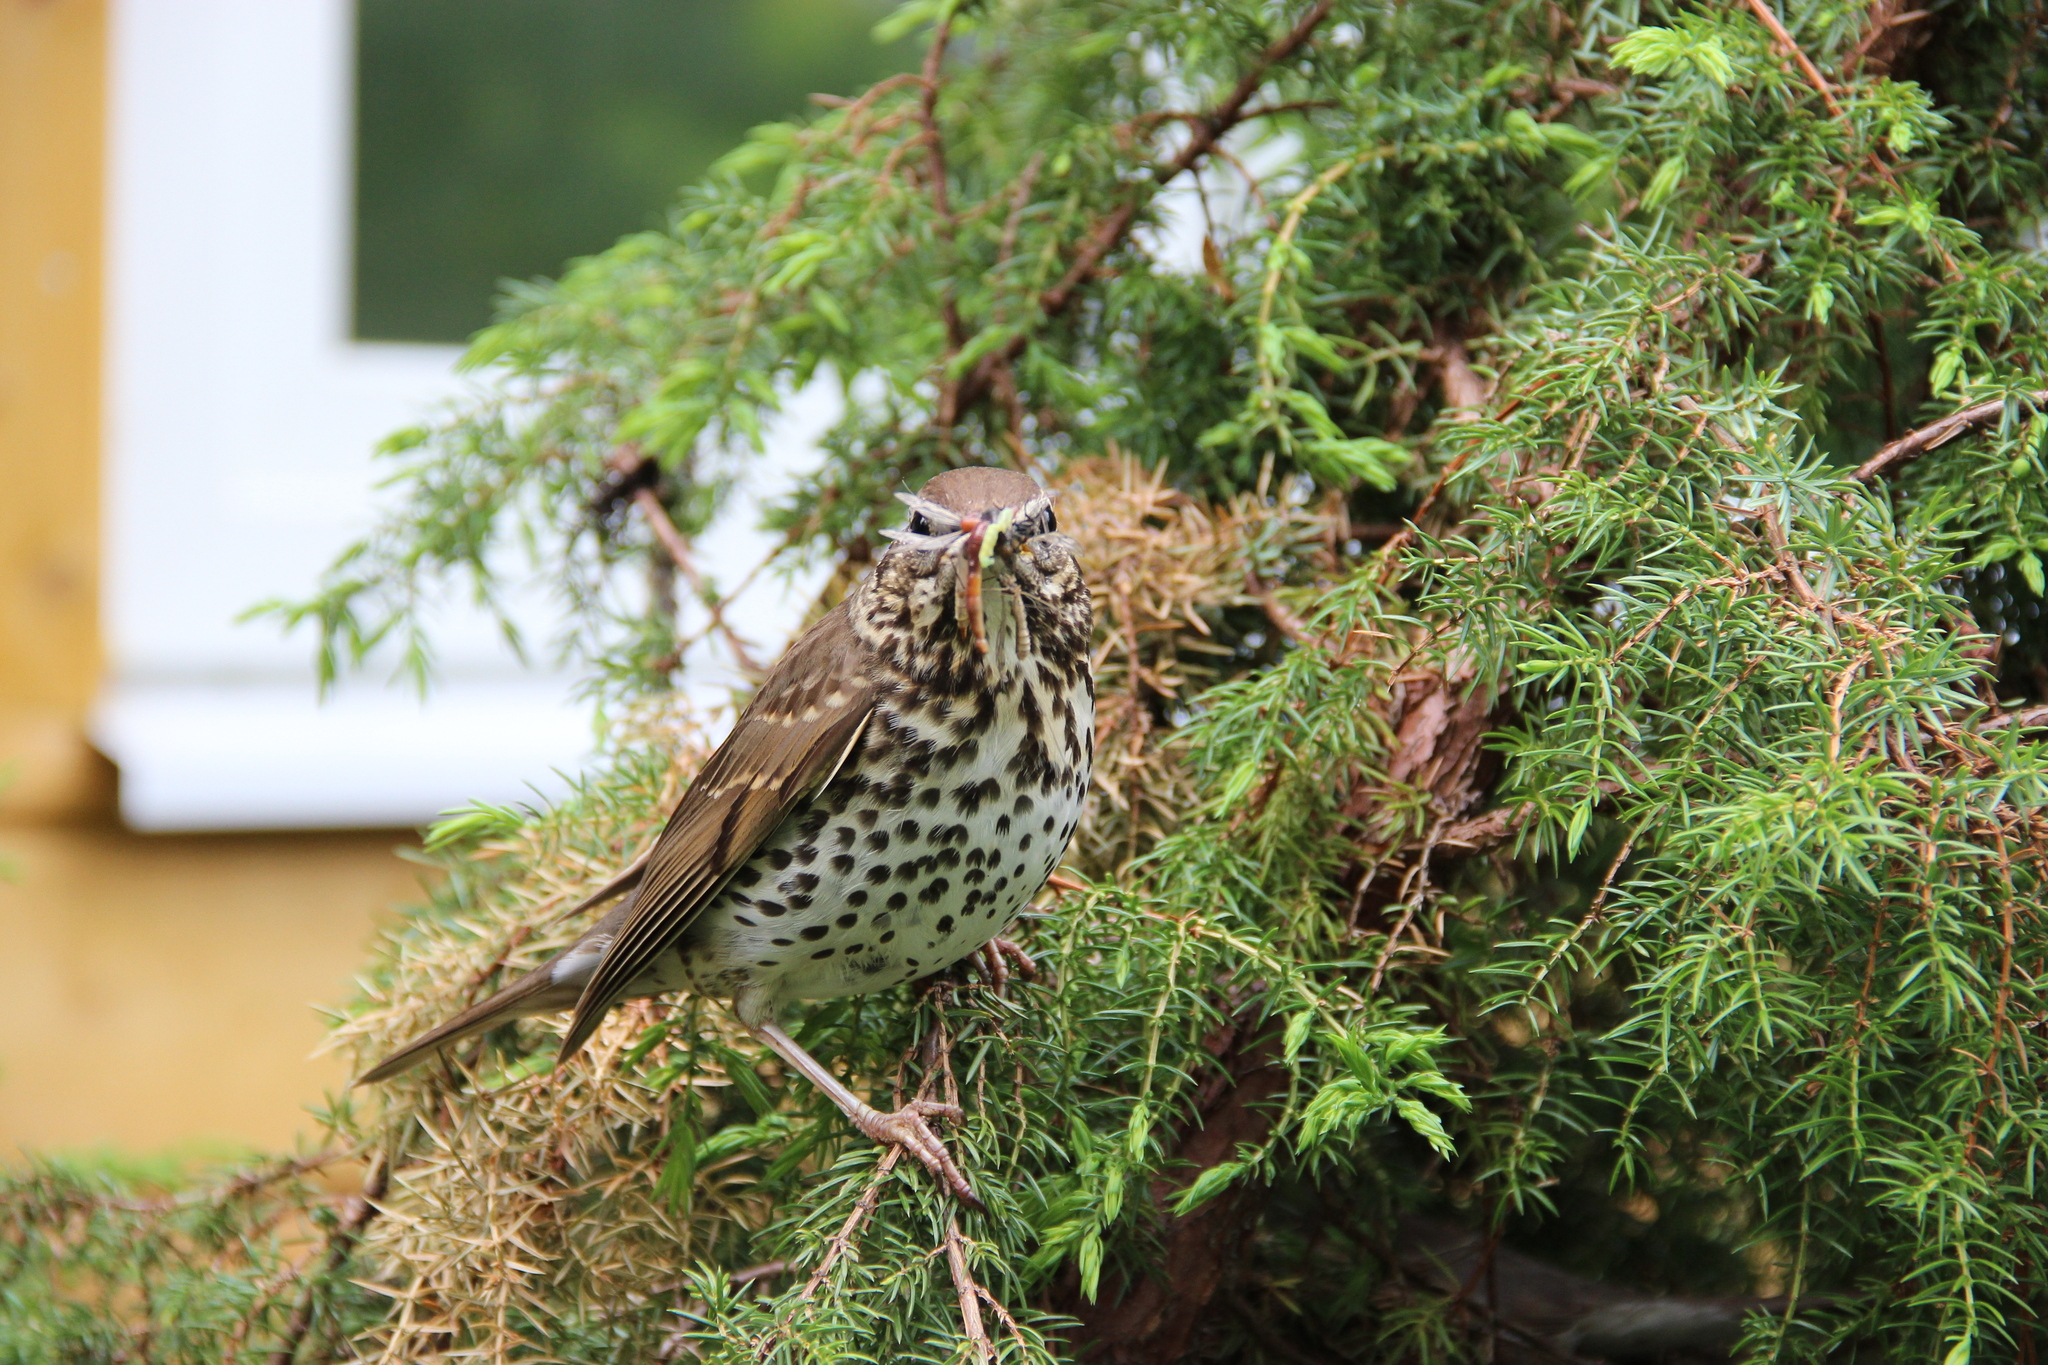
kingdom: Animalia
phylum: Chordata
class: Aves
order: Passeriformes
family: Turdidae
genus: Turdus
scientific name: Turdus philomelos
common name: Song thrush
